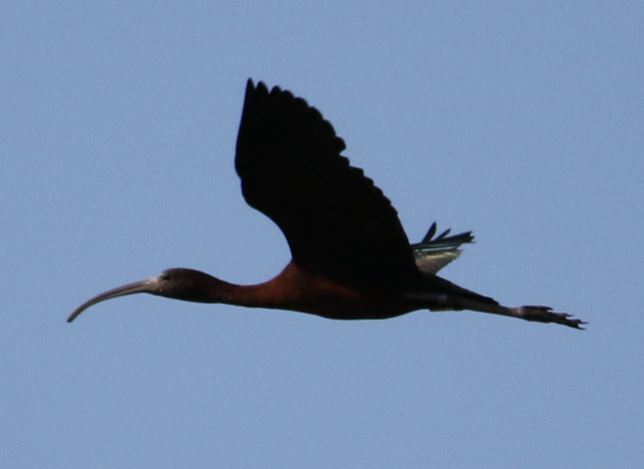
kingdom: Animalia
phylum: Chordata
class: Aves
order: Pelecaniformes
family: Threskiornithidae
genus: Plegadis
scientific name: Plegadis falcinellus
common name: Glossy ibis
